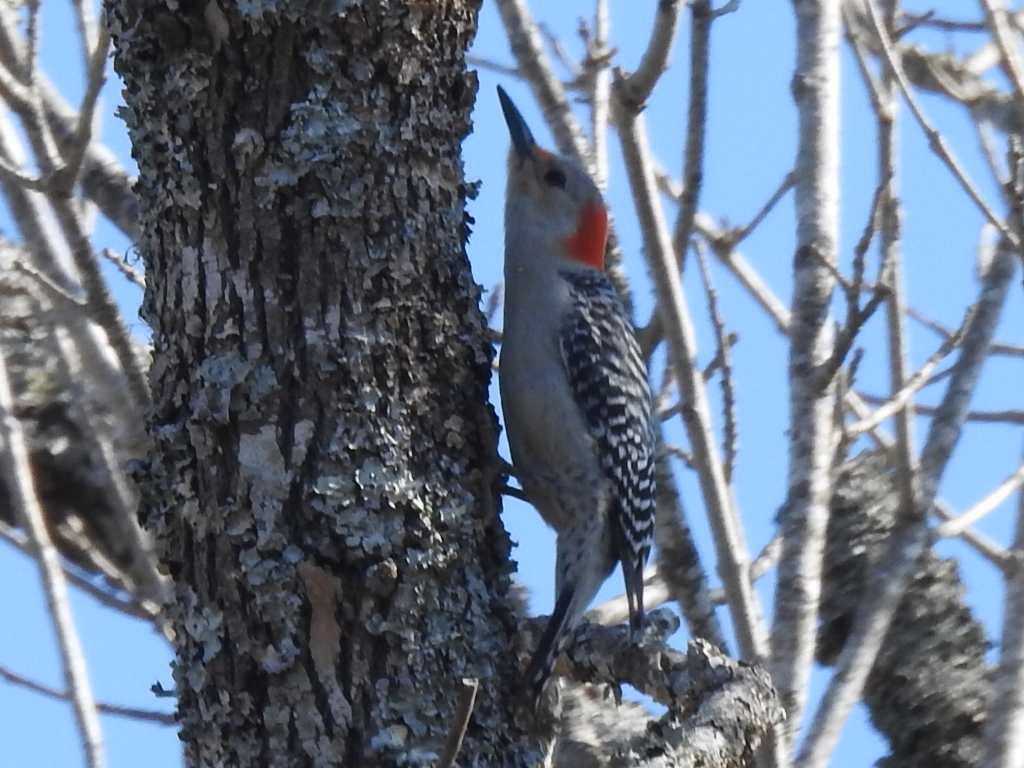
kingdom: Animalia
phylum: Chordata
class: Aves
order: Piciformes
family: Picidae
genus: Melanerpes
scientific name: Melanerpes carolinus
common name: Red-bellied woodpecker
